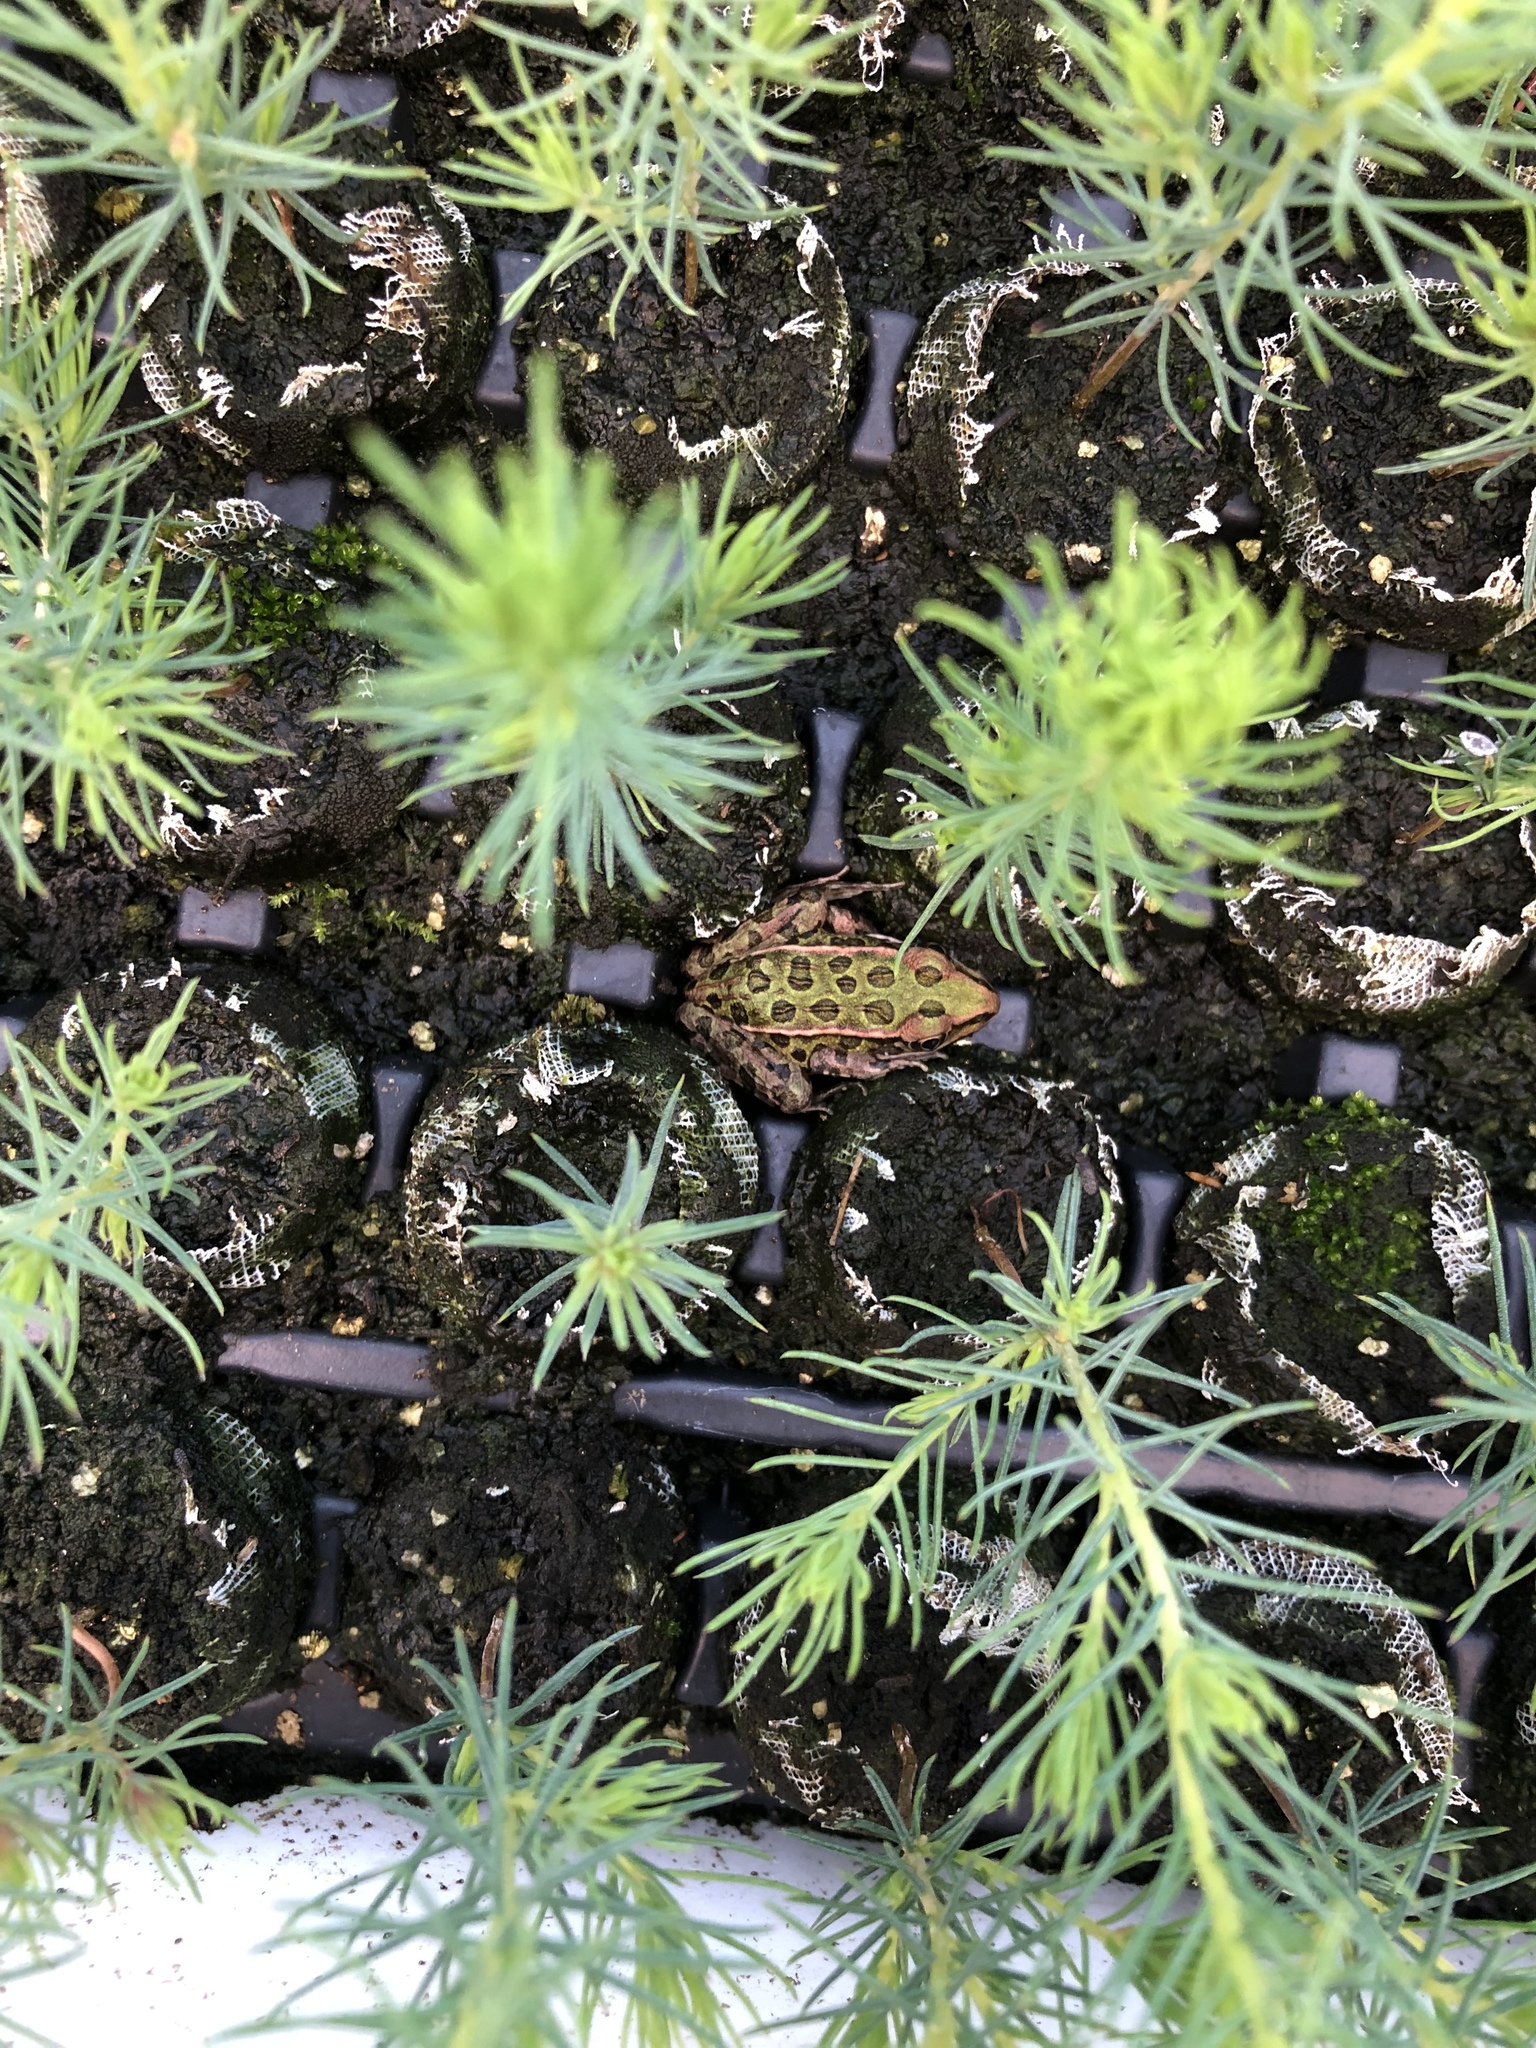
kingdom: Animalia
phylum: Chordata
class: Amphibia
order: Anura
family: Ranidae
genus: Lithobates
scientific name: Lithobates pipiens
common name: Northern leopard frog
